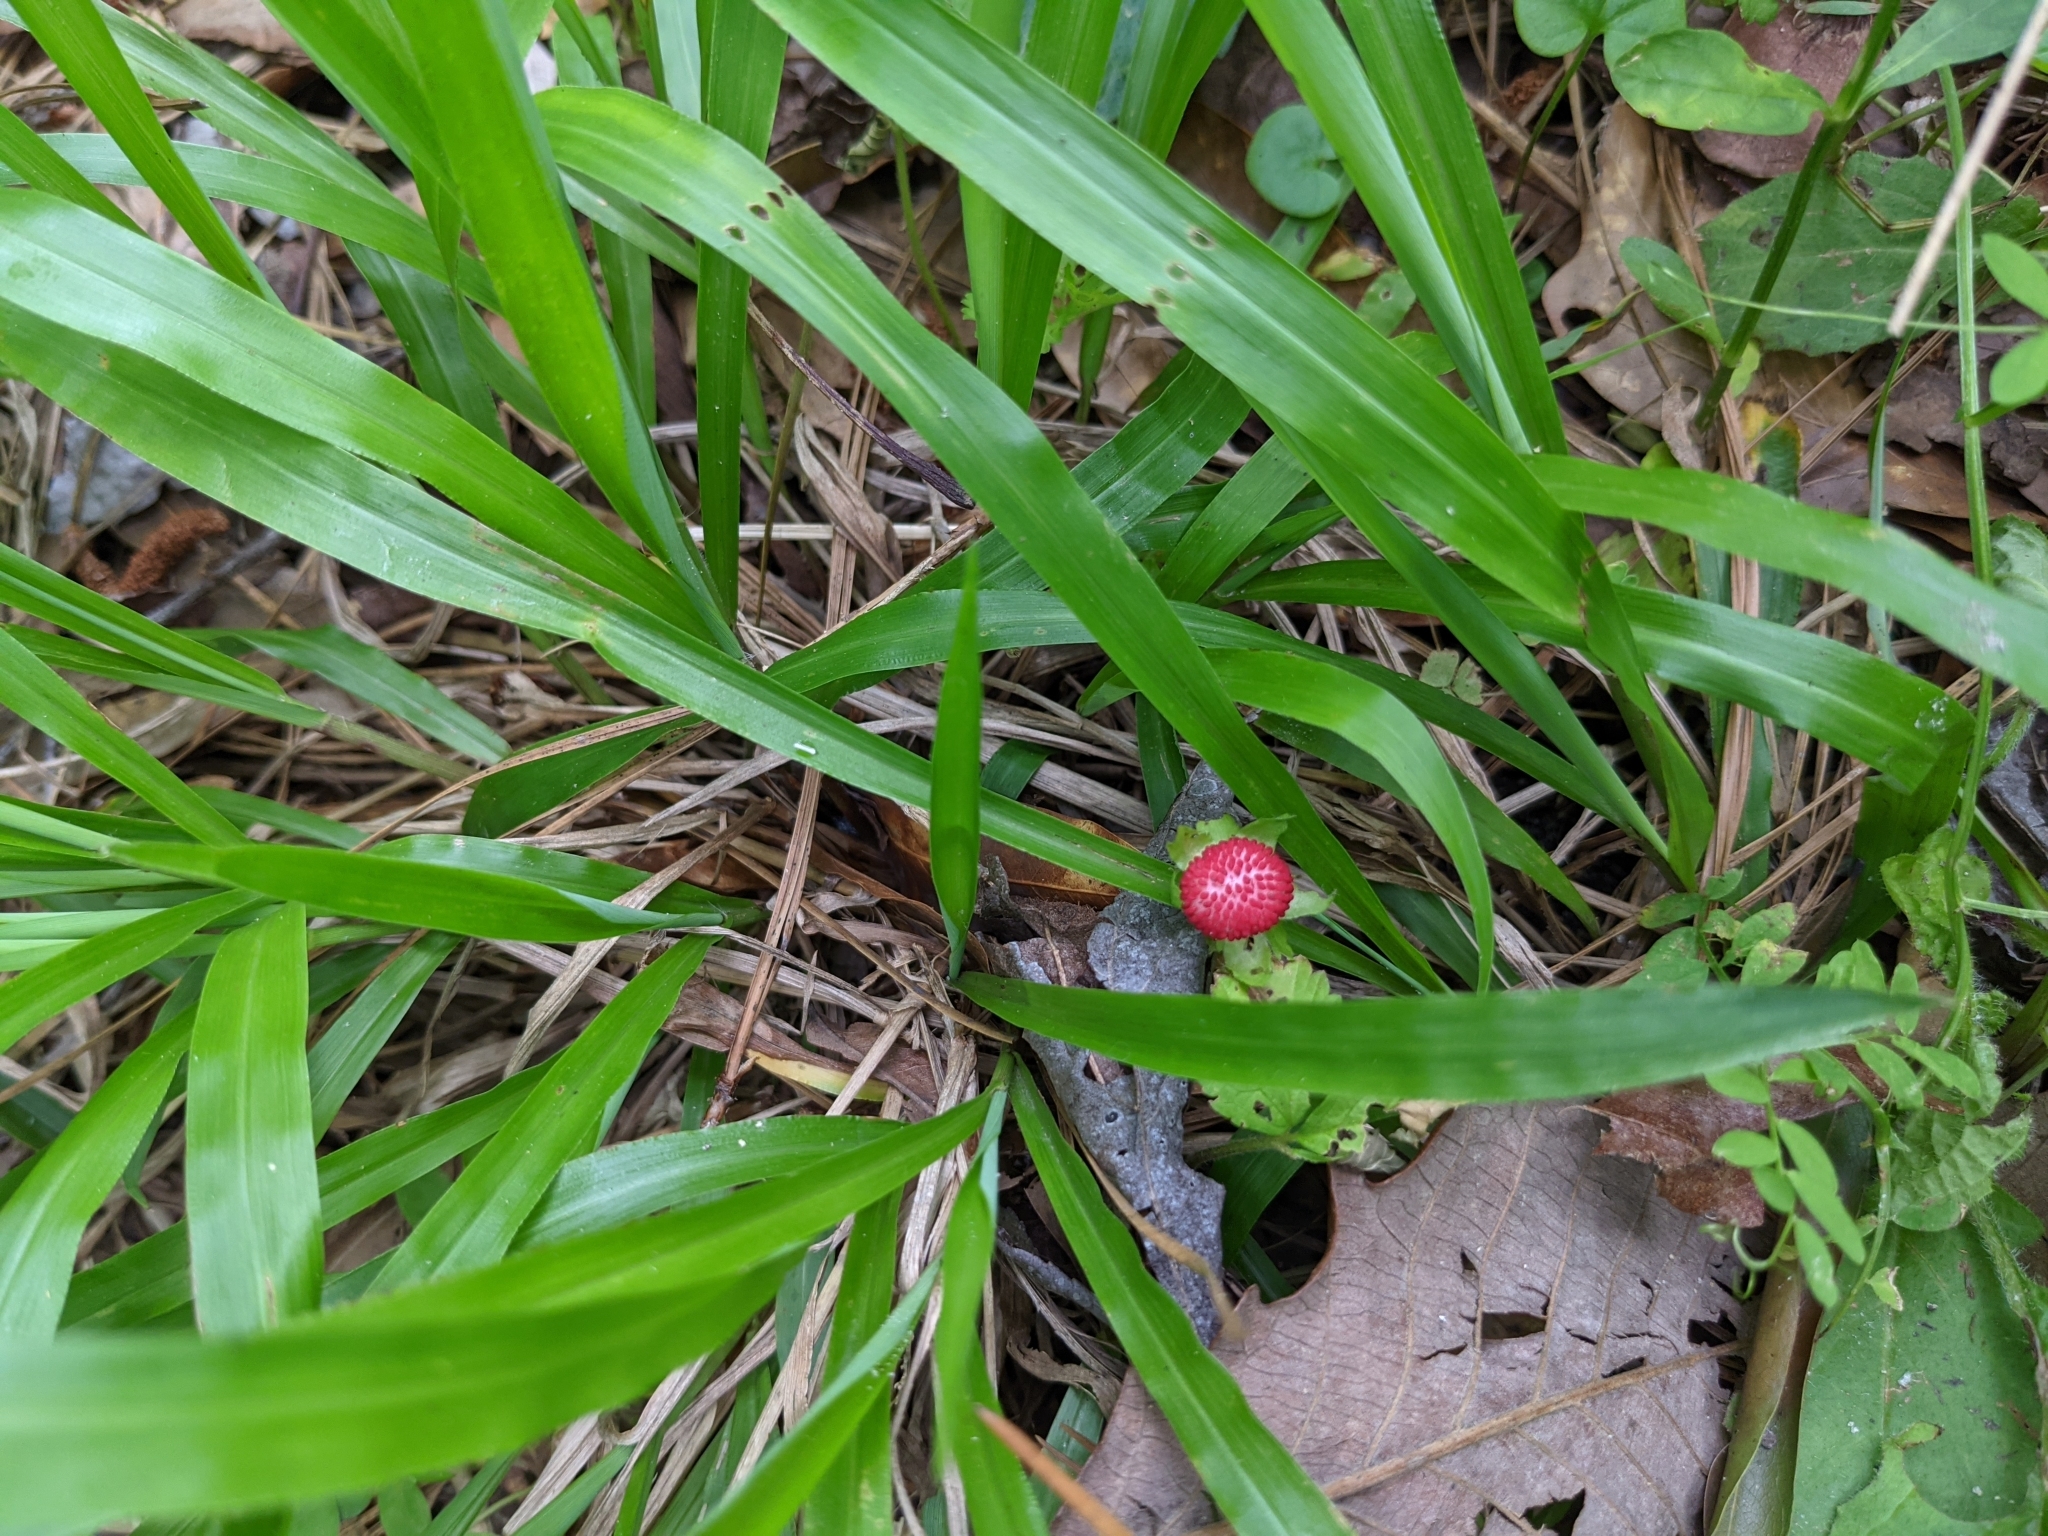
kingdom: Plantae
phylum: Tracheophyta
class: Magnoliopsida
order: Rosales
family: Rosaceae
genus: Potentilla
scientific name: Potentilla indica
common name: Yellow-flowered strawberry
